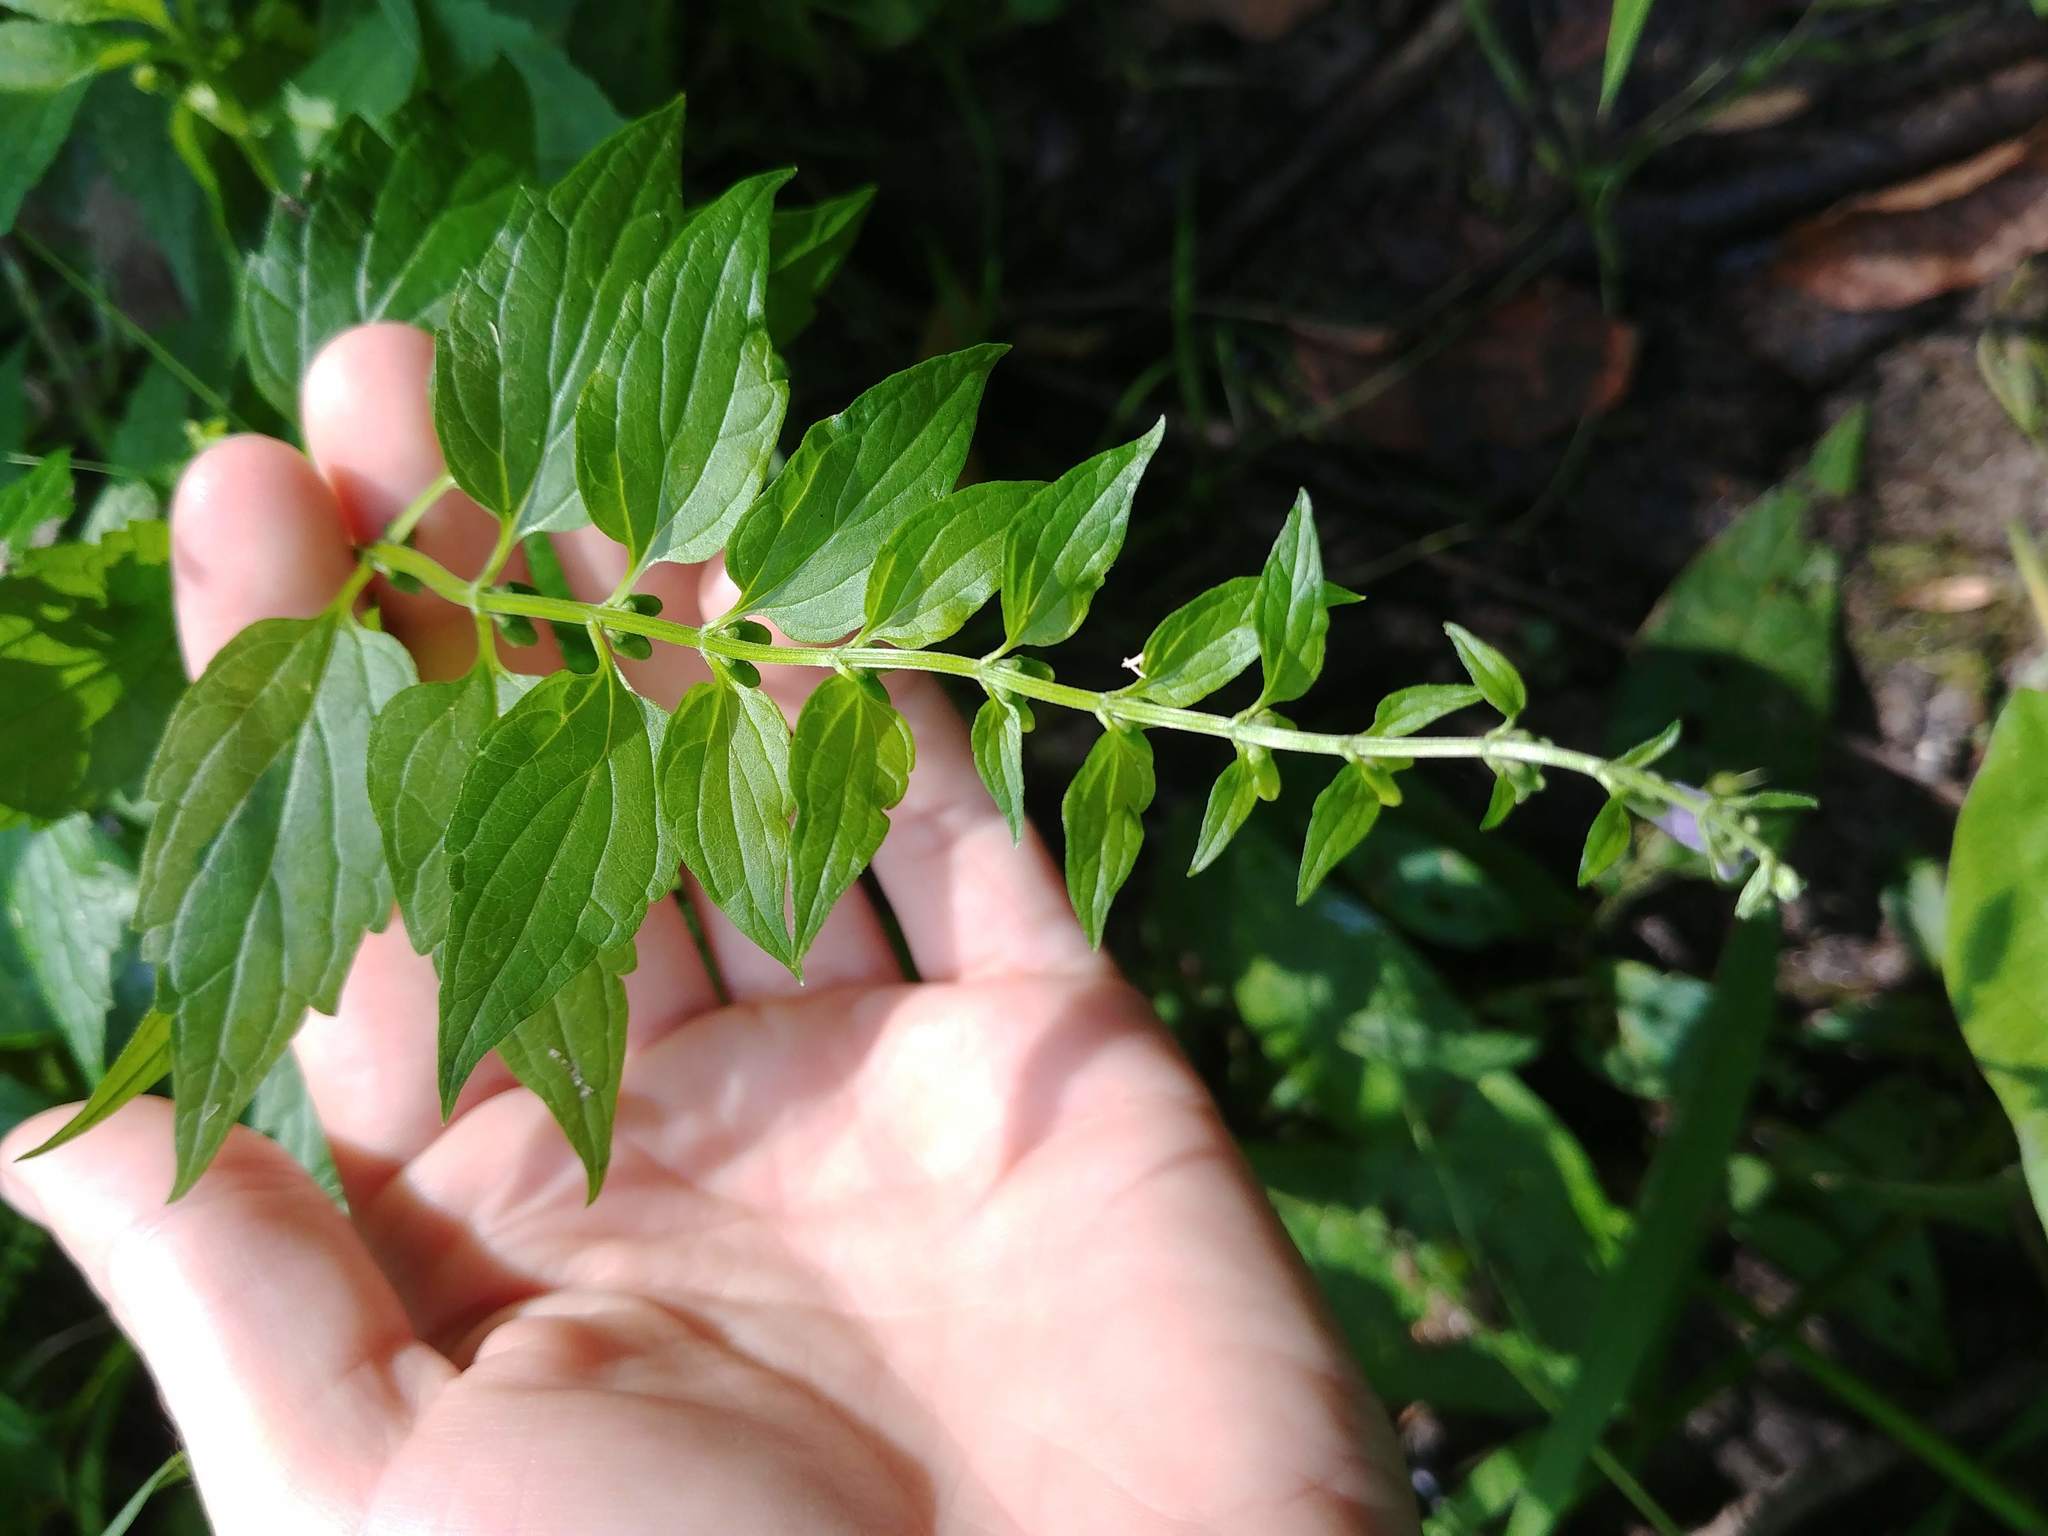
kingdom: Plantae
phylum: Tracheophyta
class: Magnoliopsida
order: Lamiales
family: Lamiaceae
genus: Scutellaria
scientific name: Scutellaria lateriflora
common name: Blue skullcap
